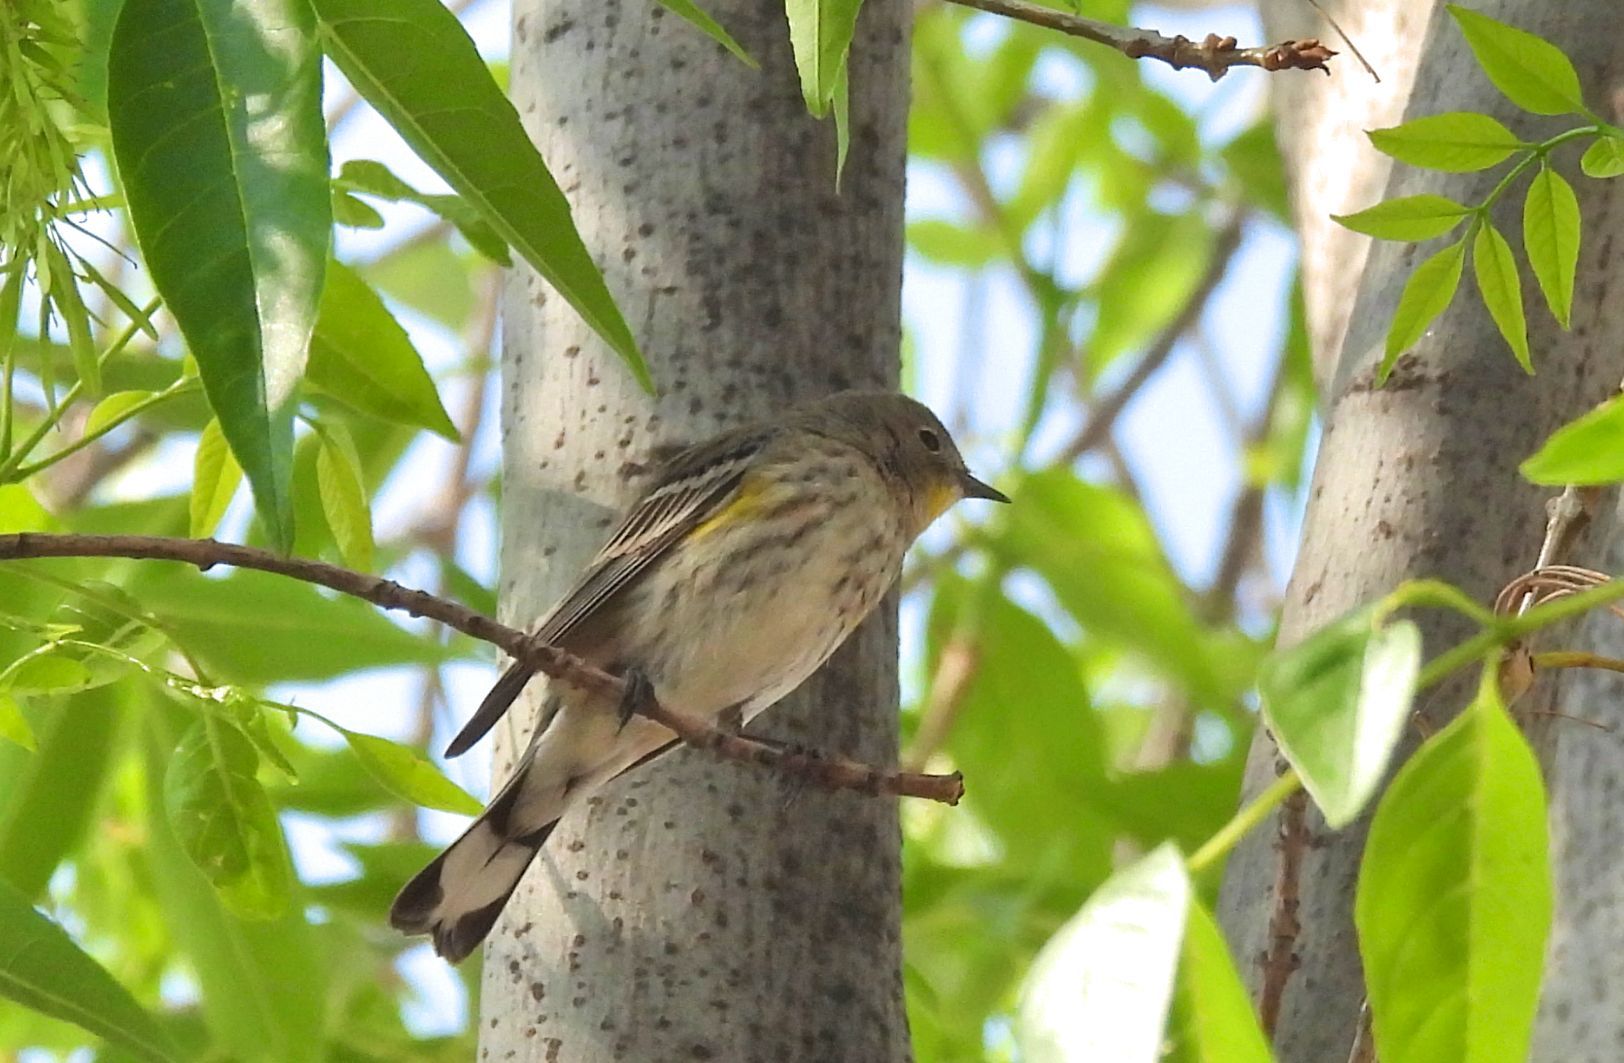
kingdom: Animalia
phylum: Chordata
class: Aves
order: Passeriformes
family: Parulidae
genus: Setophaga
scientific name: Setophaga auduboni
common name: Audubon's warbler
